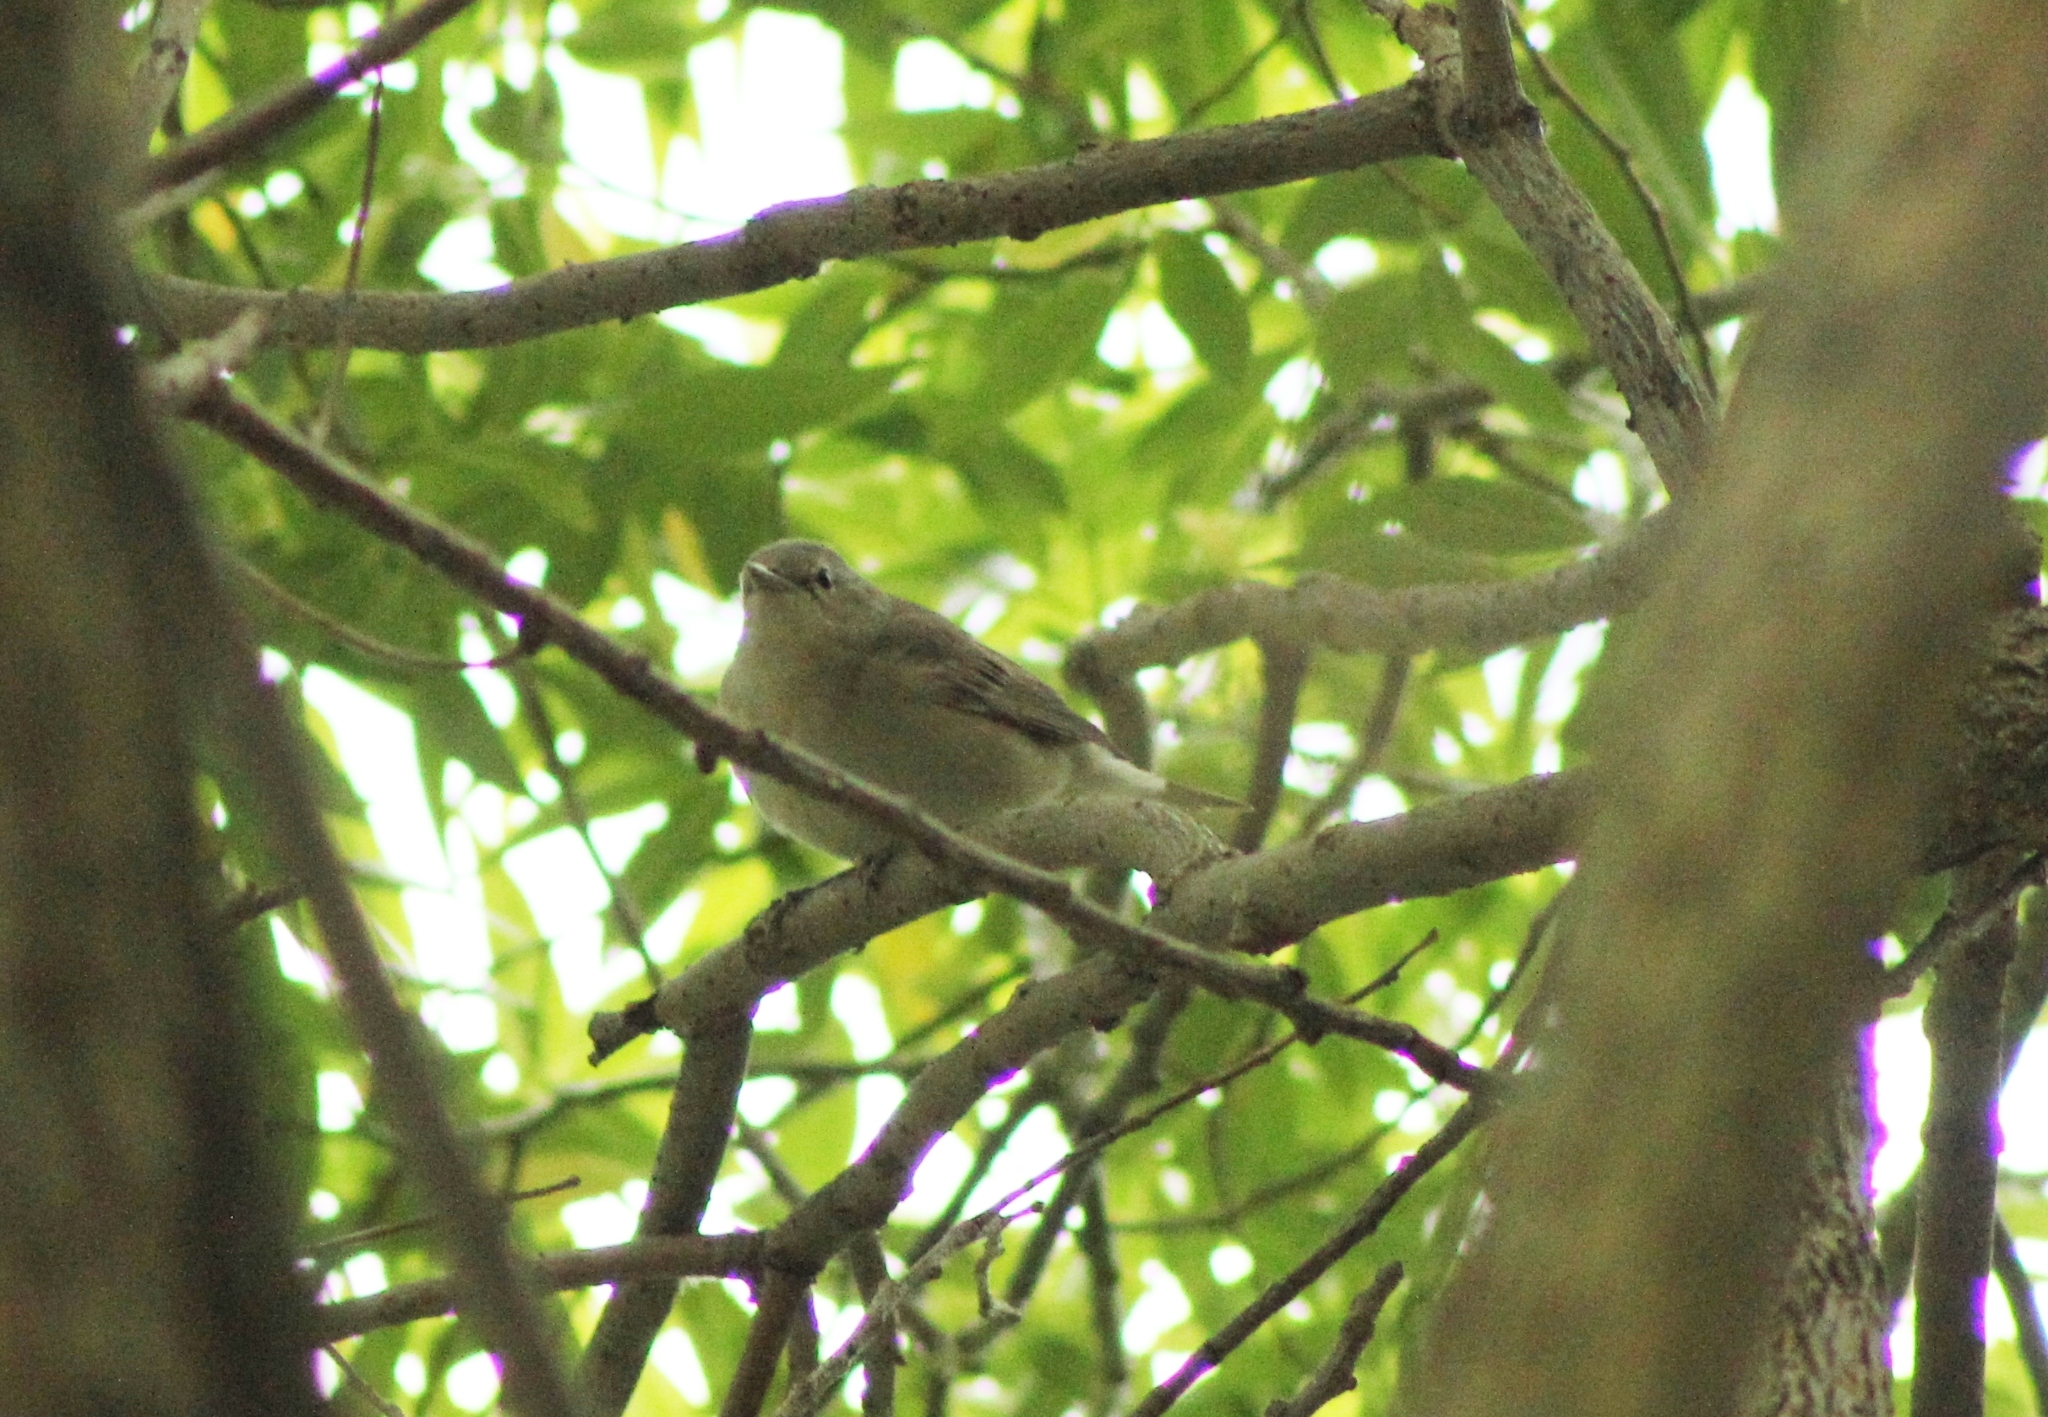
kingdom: Animalia
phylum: Chordata
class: Aves
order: Passeriformes
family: Sylviidae
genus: Sylvia
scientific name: Sylvia borin
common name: Garden warbler
